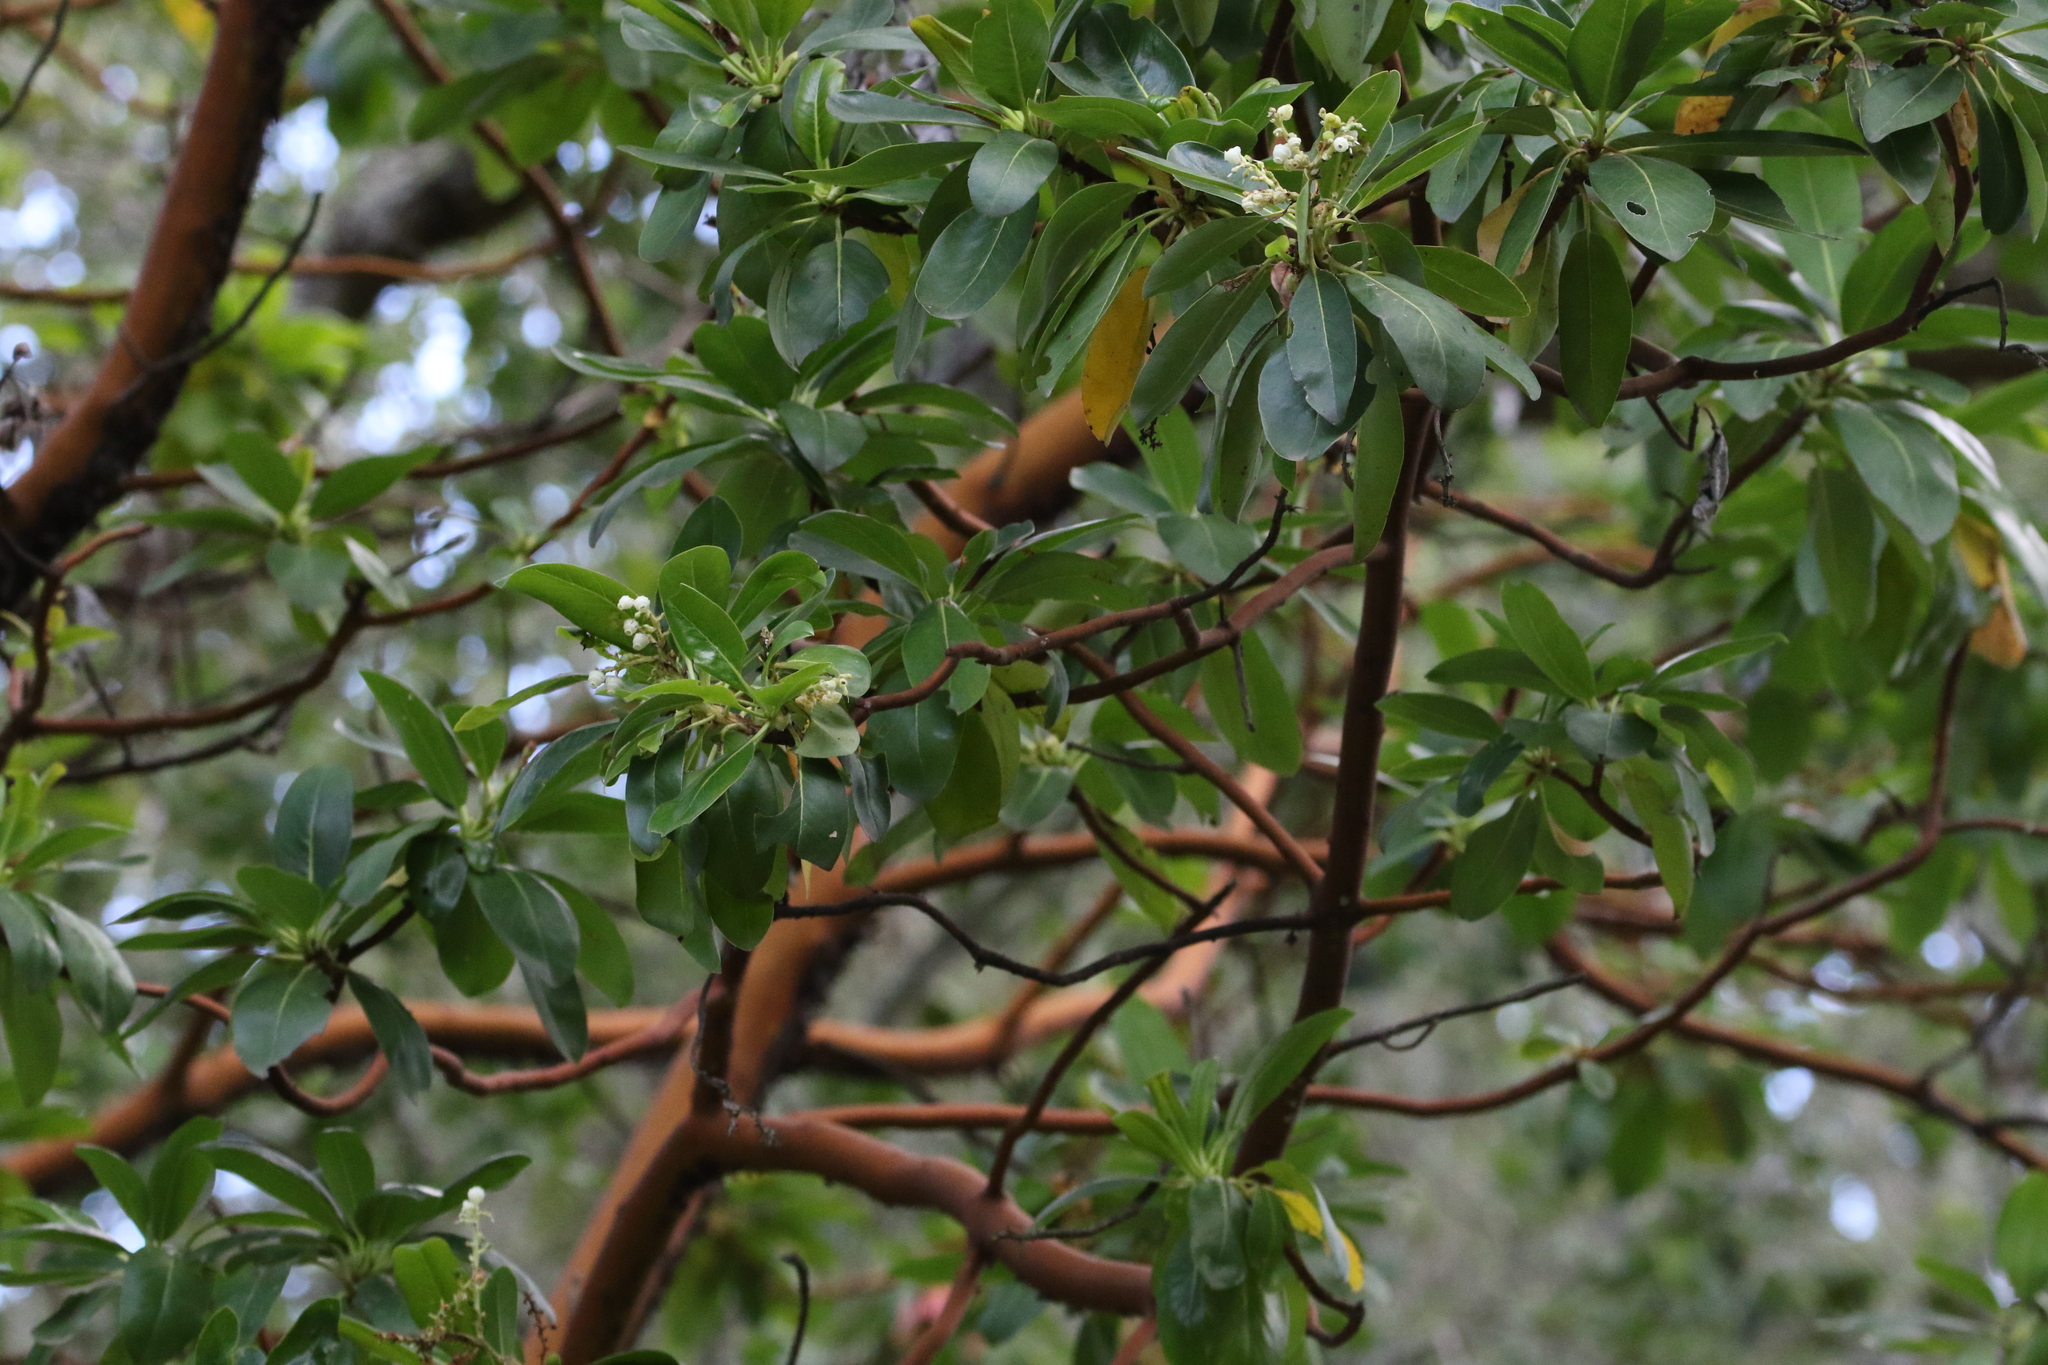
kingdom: Plantae
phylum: Tracheophyta
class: Magnoliopsida
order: Ericales
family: Ericaceae
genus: Arbutus
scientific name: Arbutus menziesii
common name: Pacific madrone
